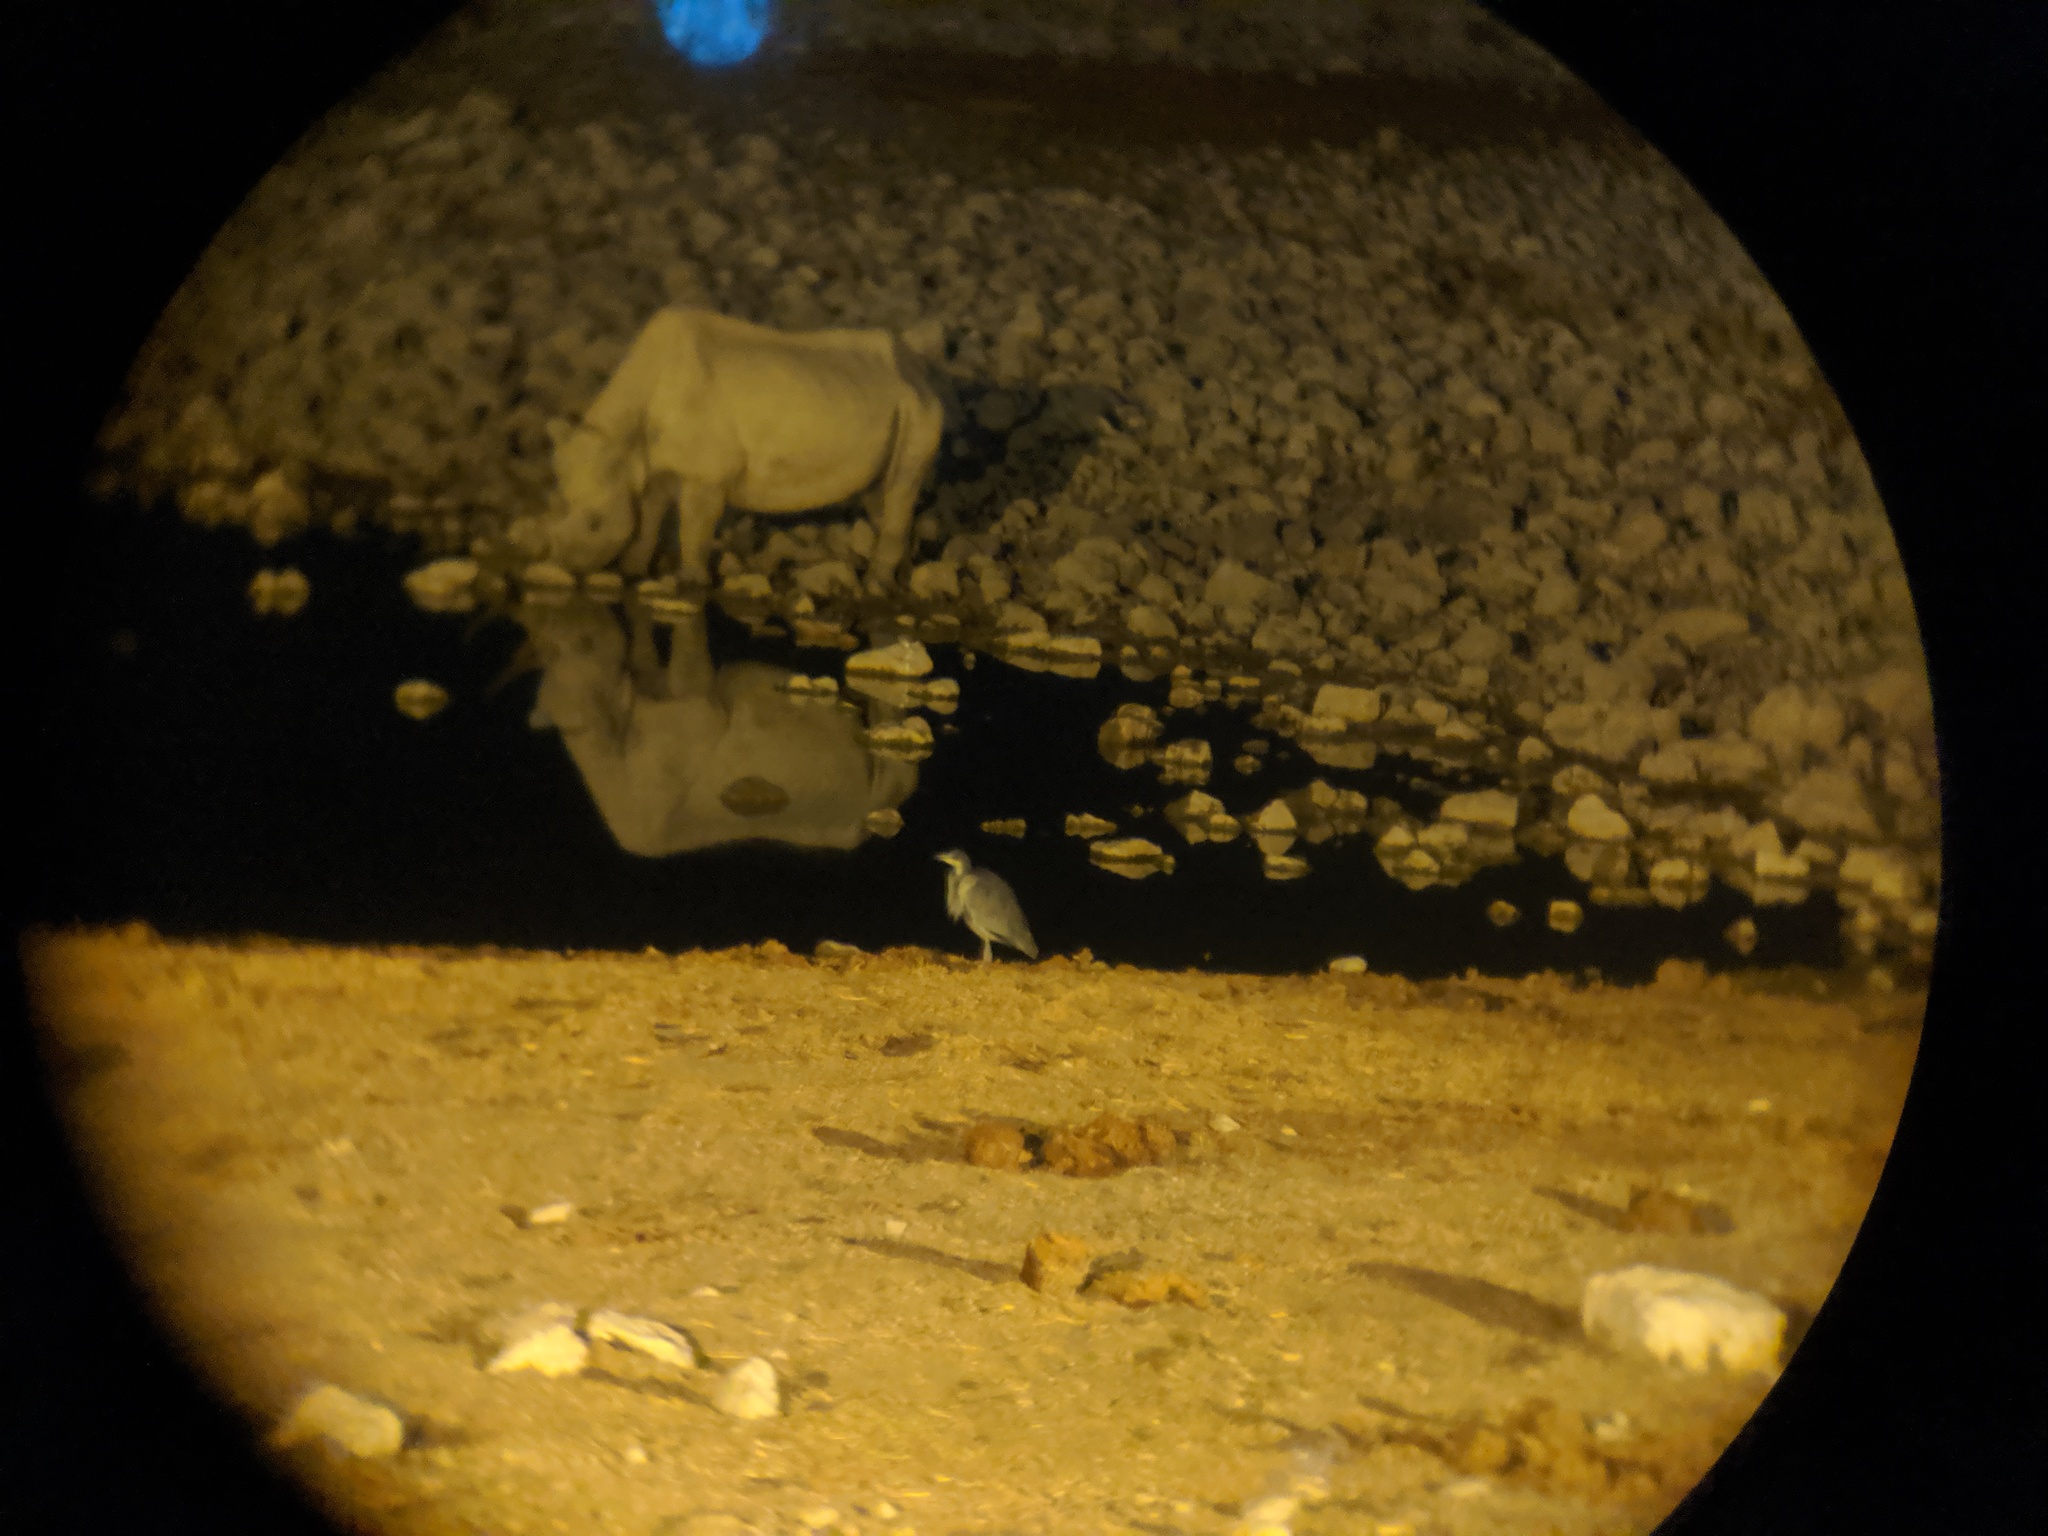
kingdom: Animalia
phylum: Chordata
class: Aves
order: Pelecaniformes
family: Ardeidae
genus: Ardea
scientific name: Ardea melanocephala
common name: Black-headed heron
